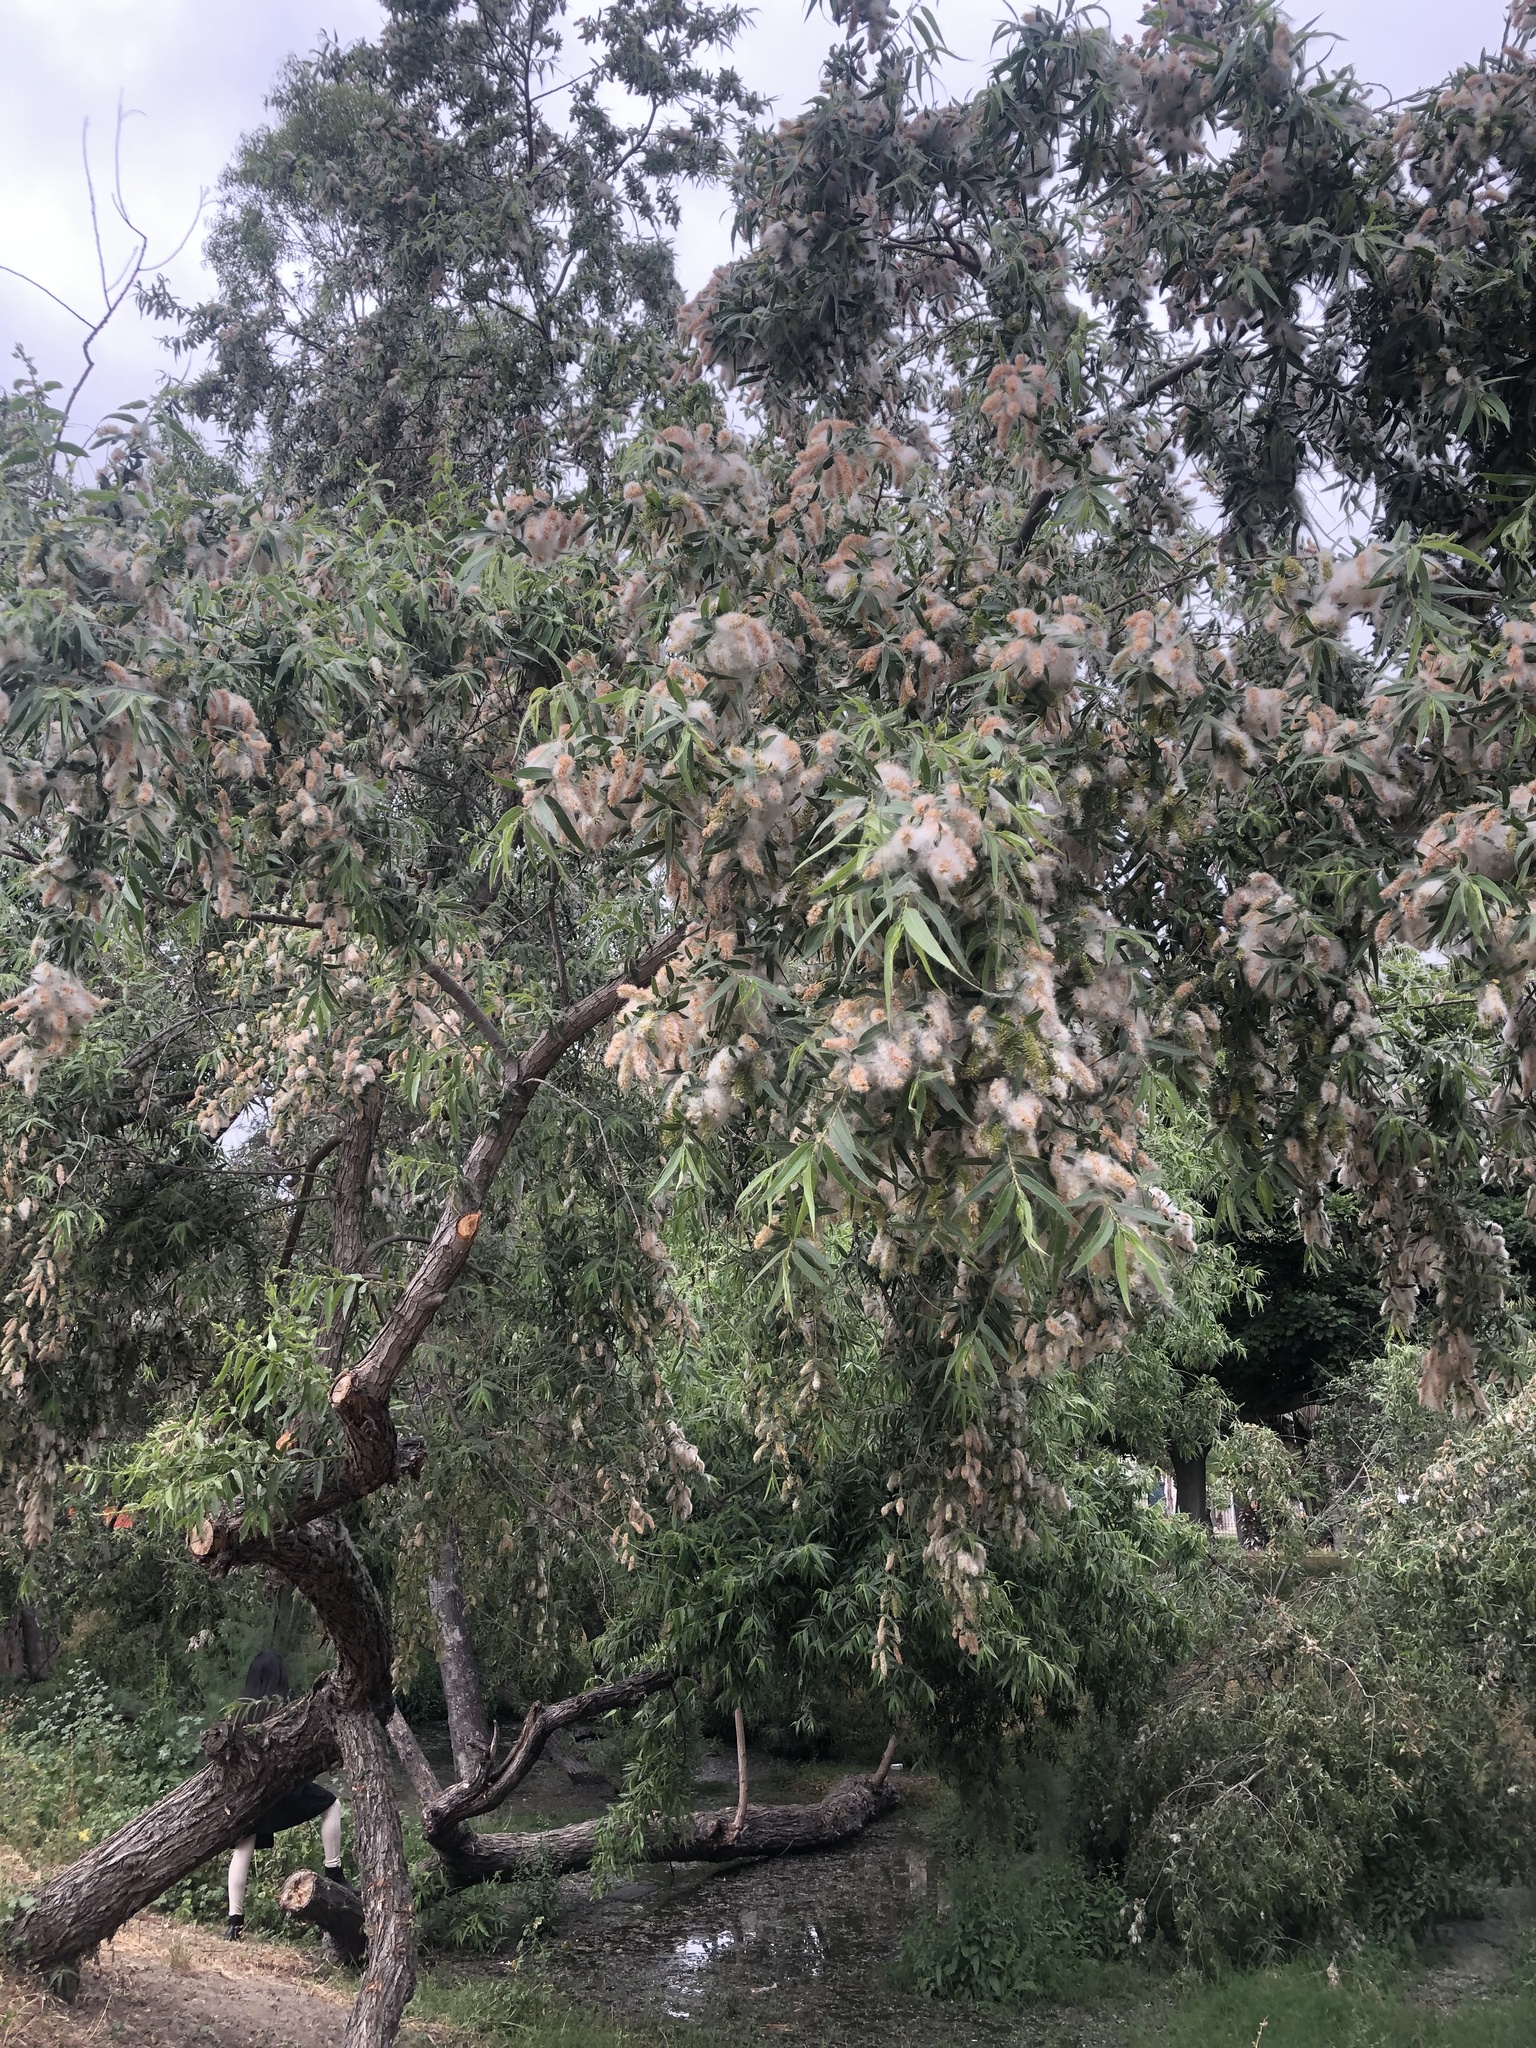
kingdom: Plantae
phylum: Tracheophyta
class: Magnoliopsida
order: Malpighiales
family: Salicaceae
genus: Salix
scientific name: Salix gooddingii
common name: Goodding's willow
